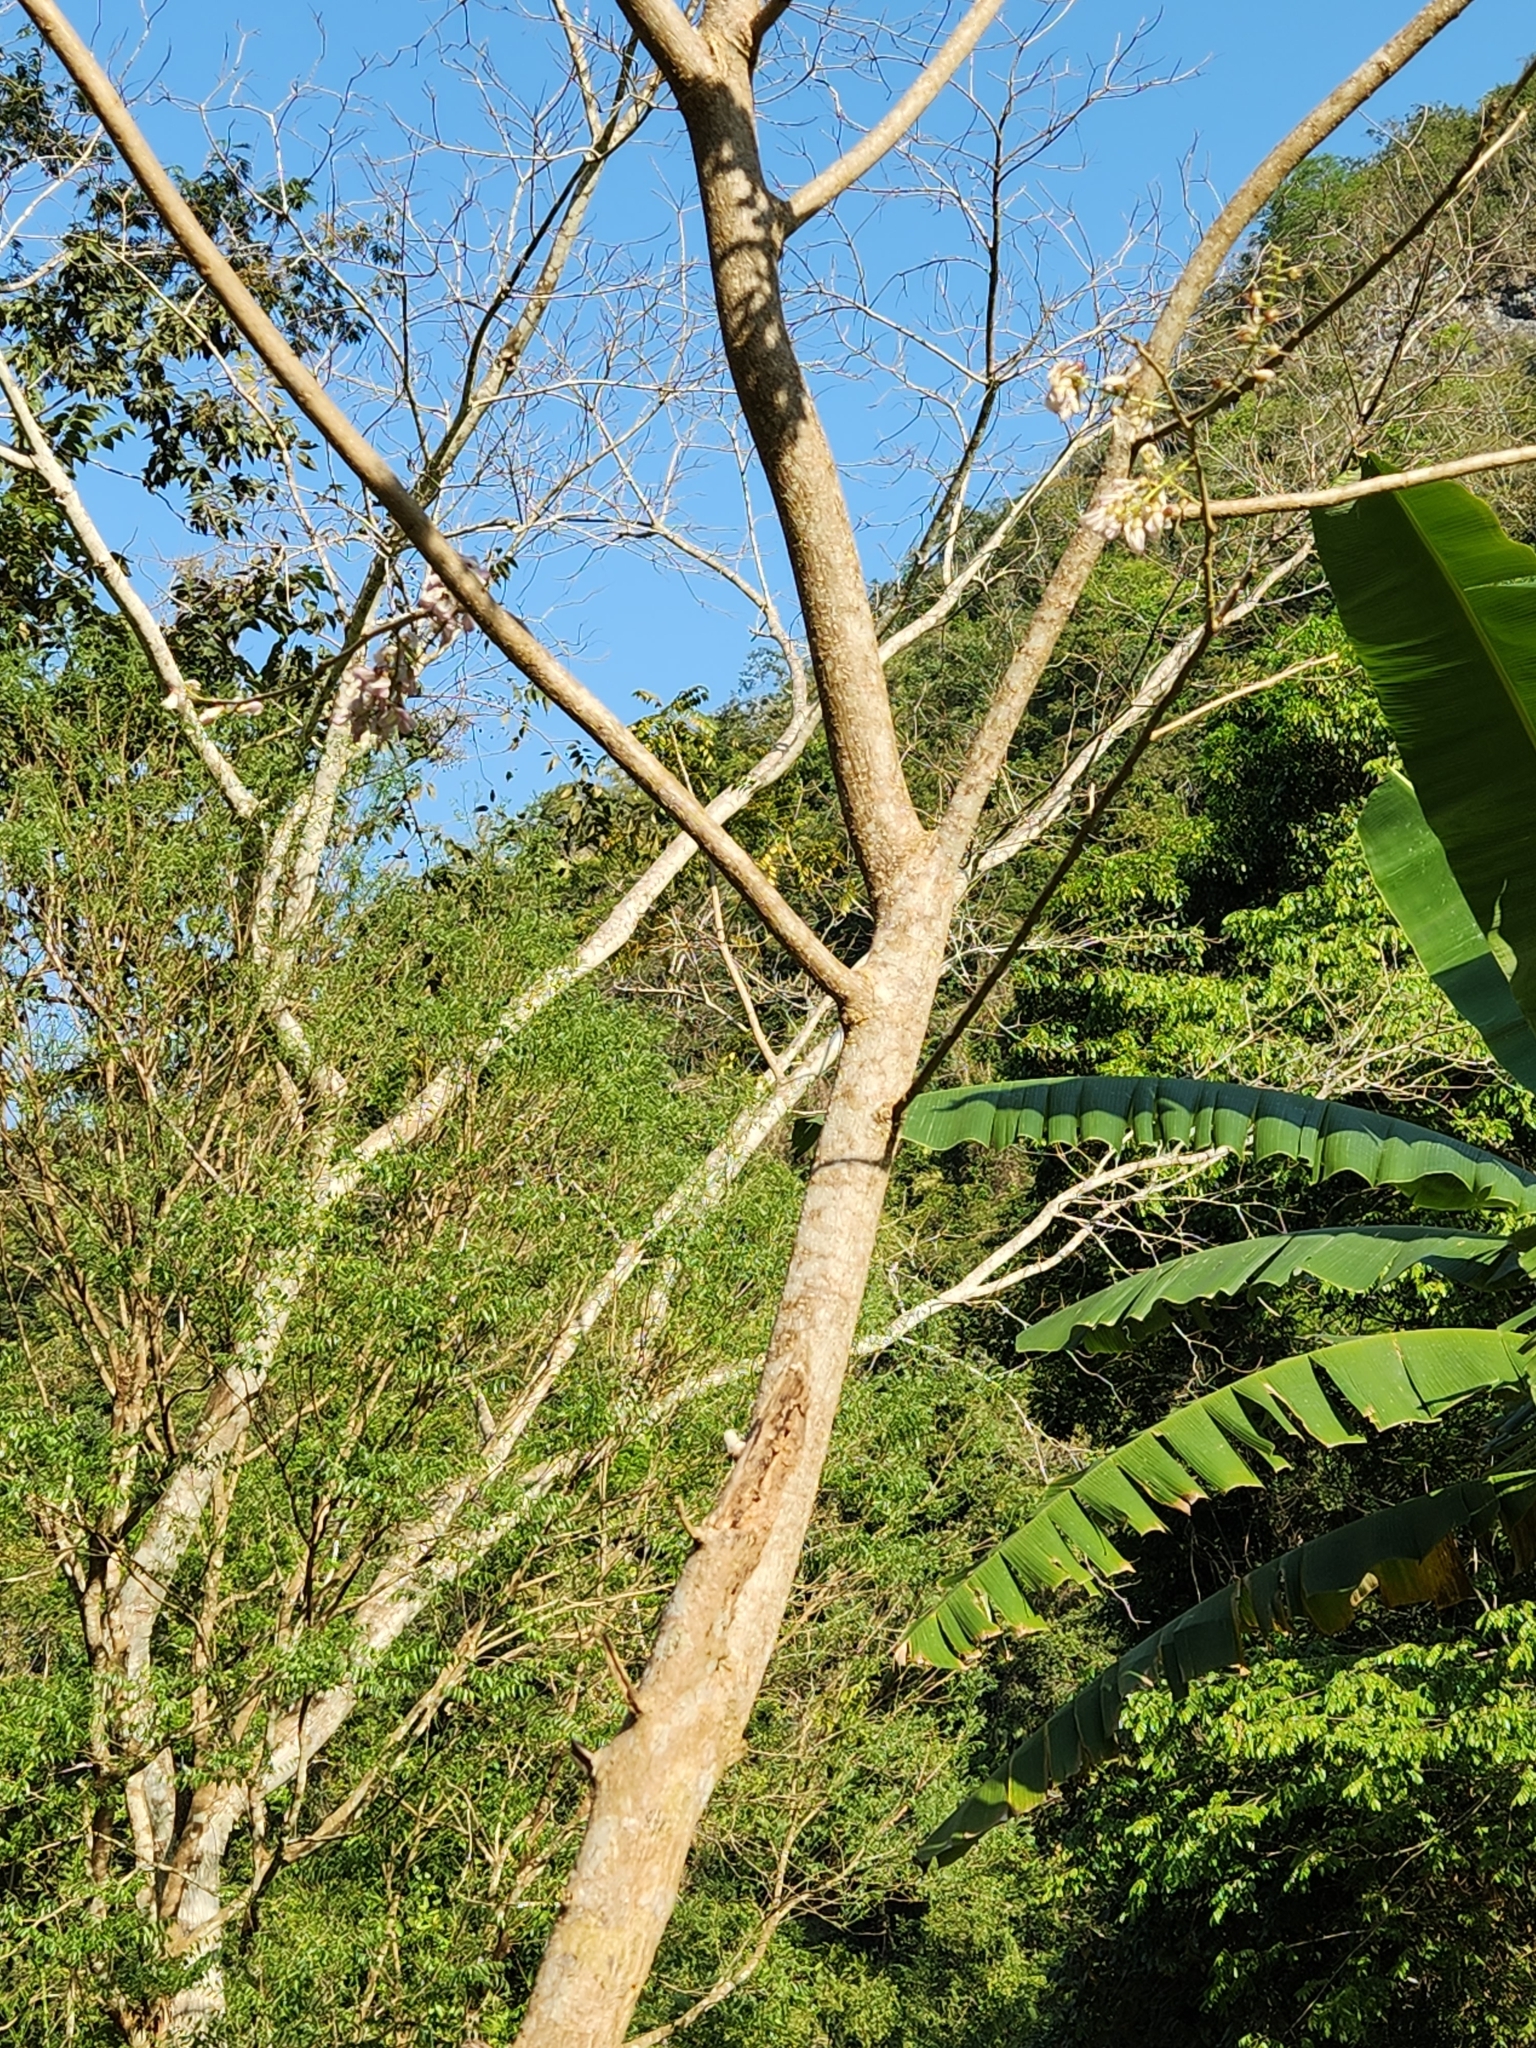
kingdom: Plantae
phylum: Tracheophyta
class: Magnoliopsida
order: Fabales
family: Fabaceae
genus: Gliricidia
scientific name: Gliricidia sepium
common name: Quickstick
